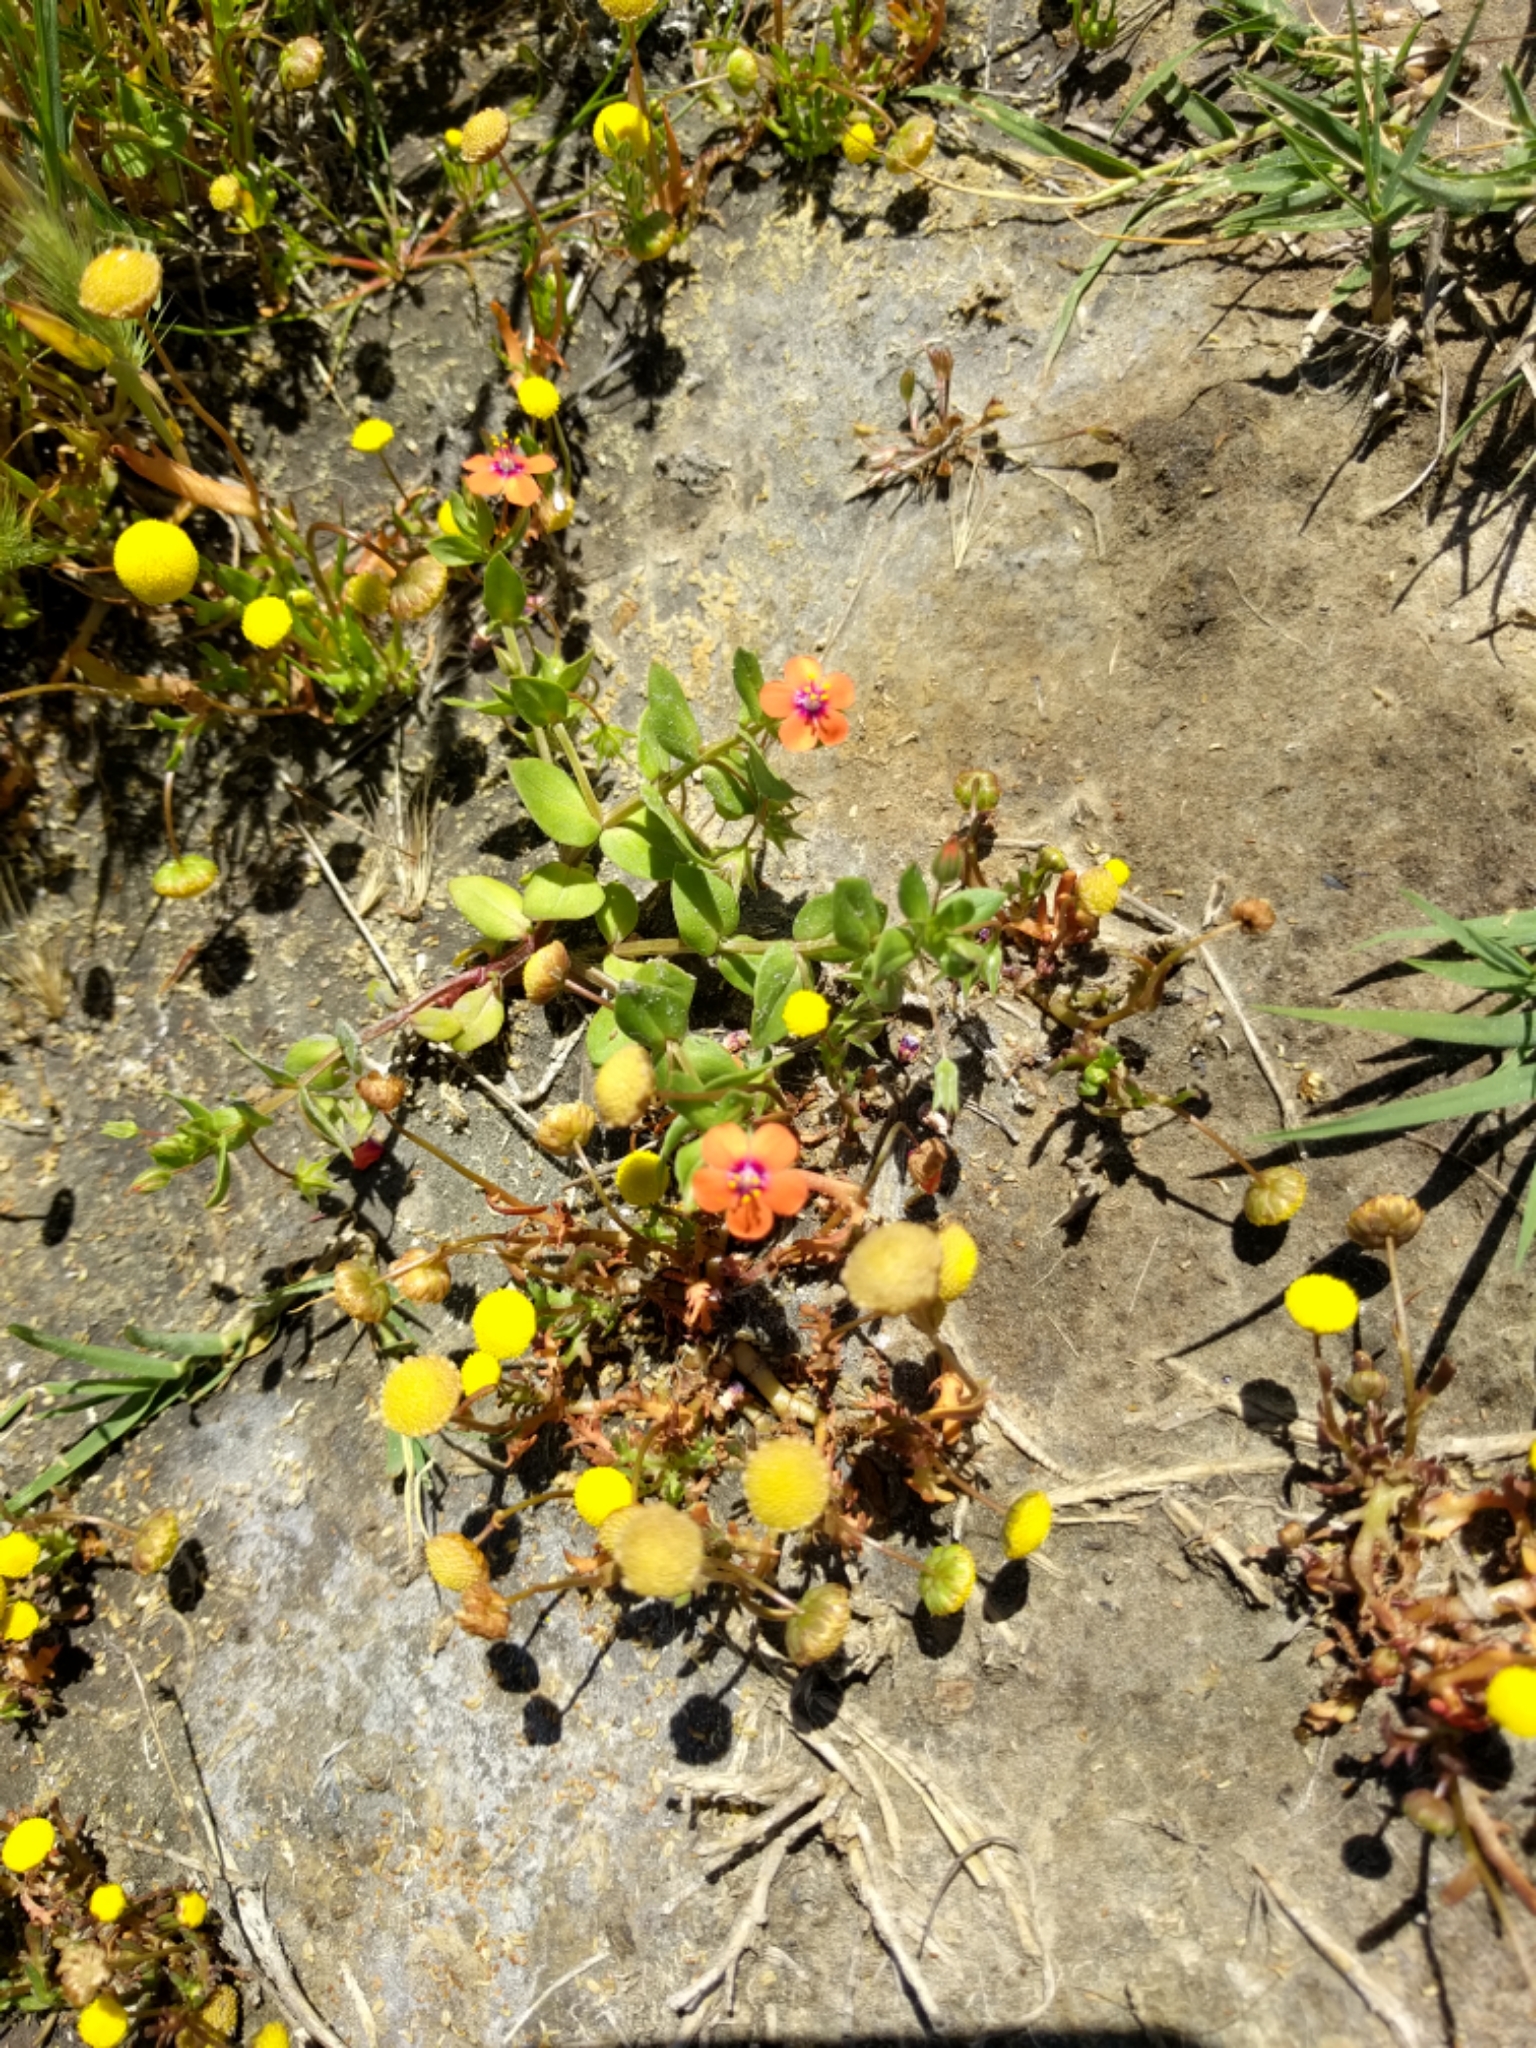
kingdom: Plantae
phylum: Tracheophyta
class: Magnoliopsida
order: Ericales
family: Primulaceae
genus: Lysimachia
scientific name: Lysimachia arvensis
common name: Scarlet pimpernel
